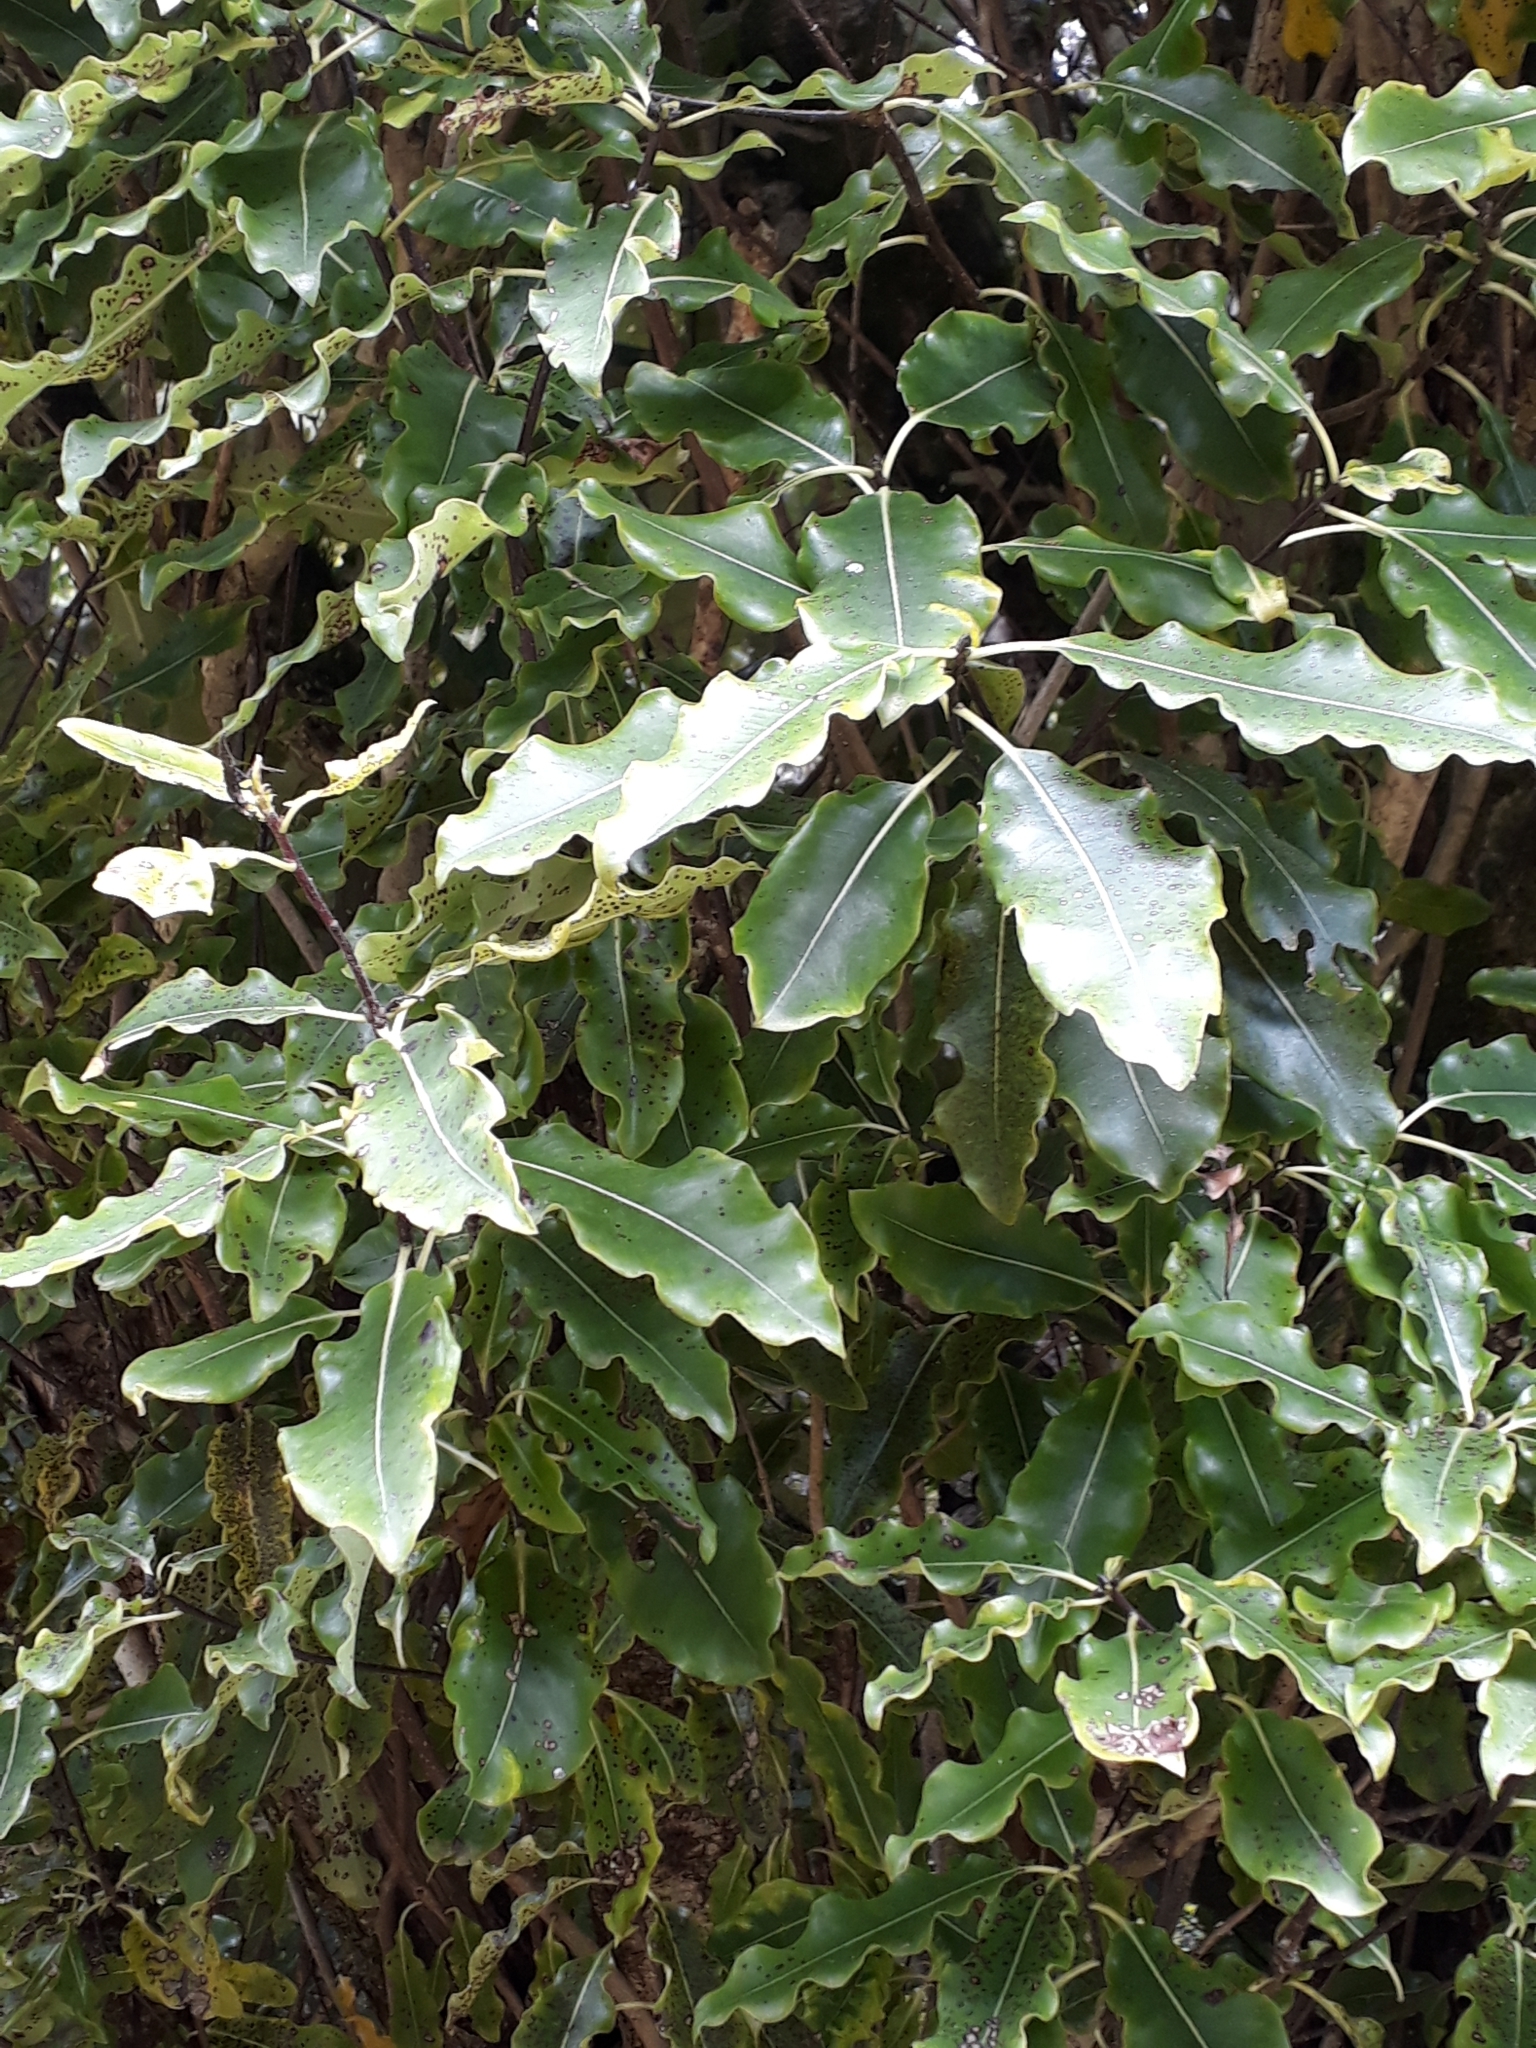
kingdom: Plantae
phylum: Tracheophyta
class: Magnoliopsida
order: Apiales
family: Pittosporaceae
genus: Pittosporum
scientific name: Pittosporum eugenioides
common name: Lemonwood
